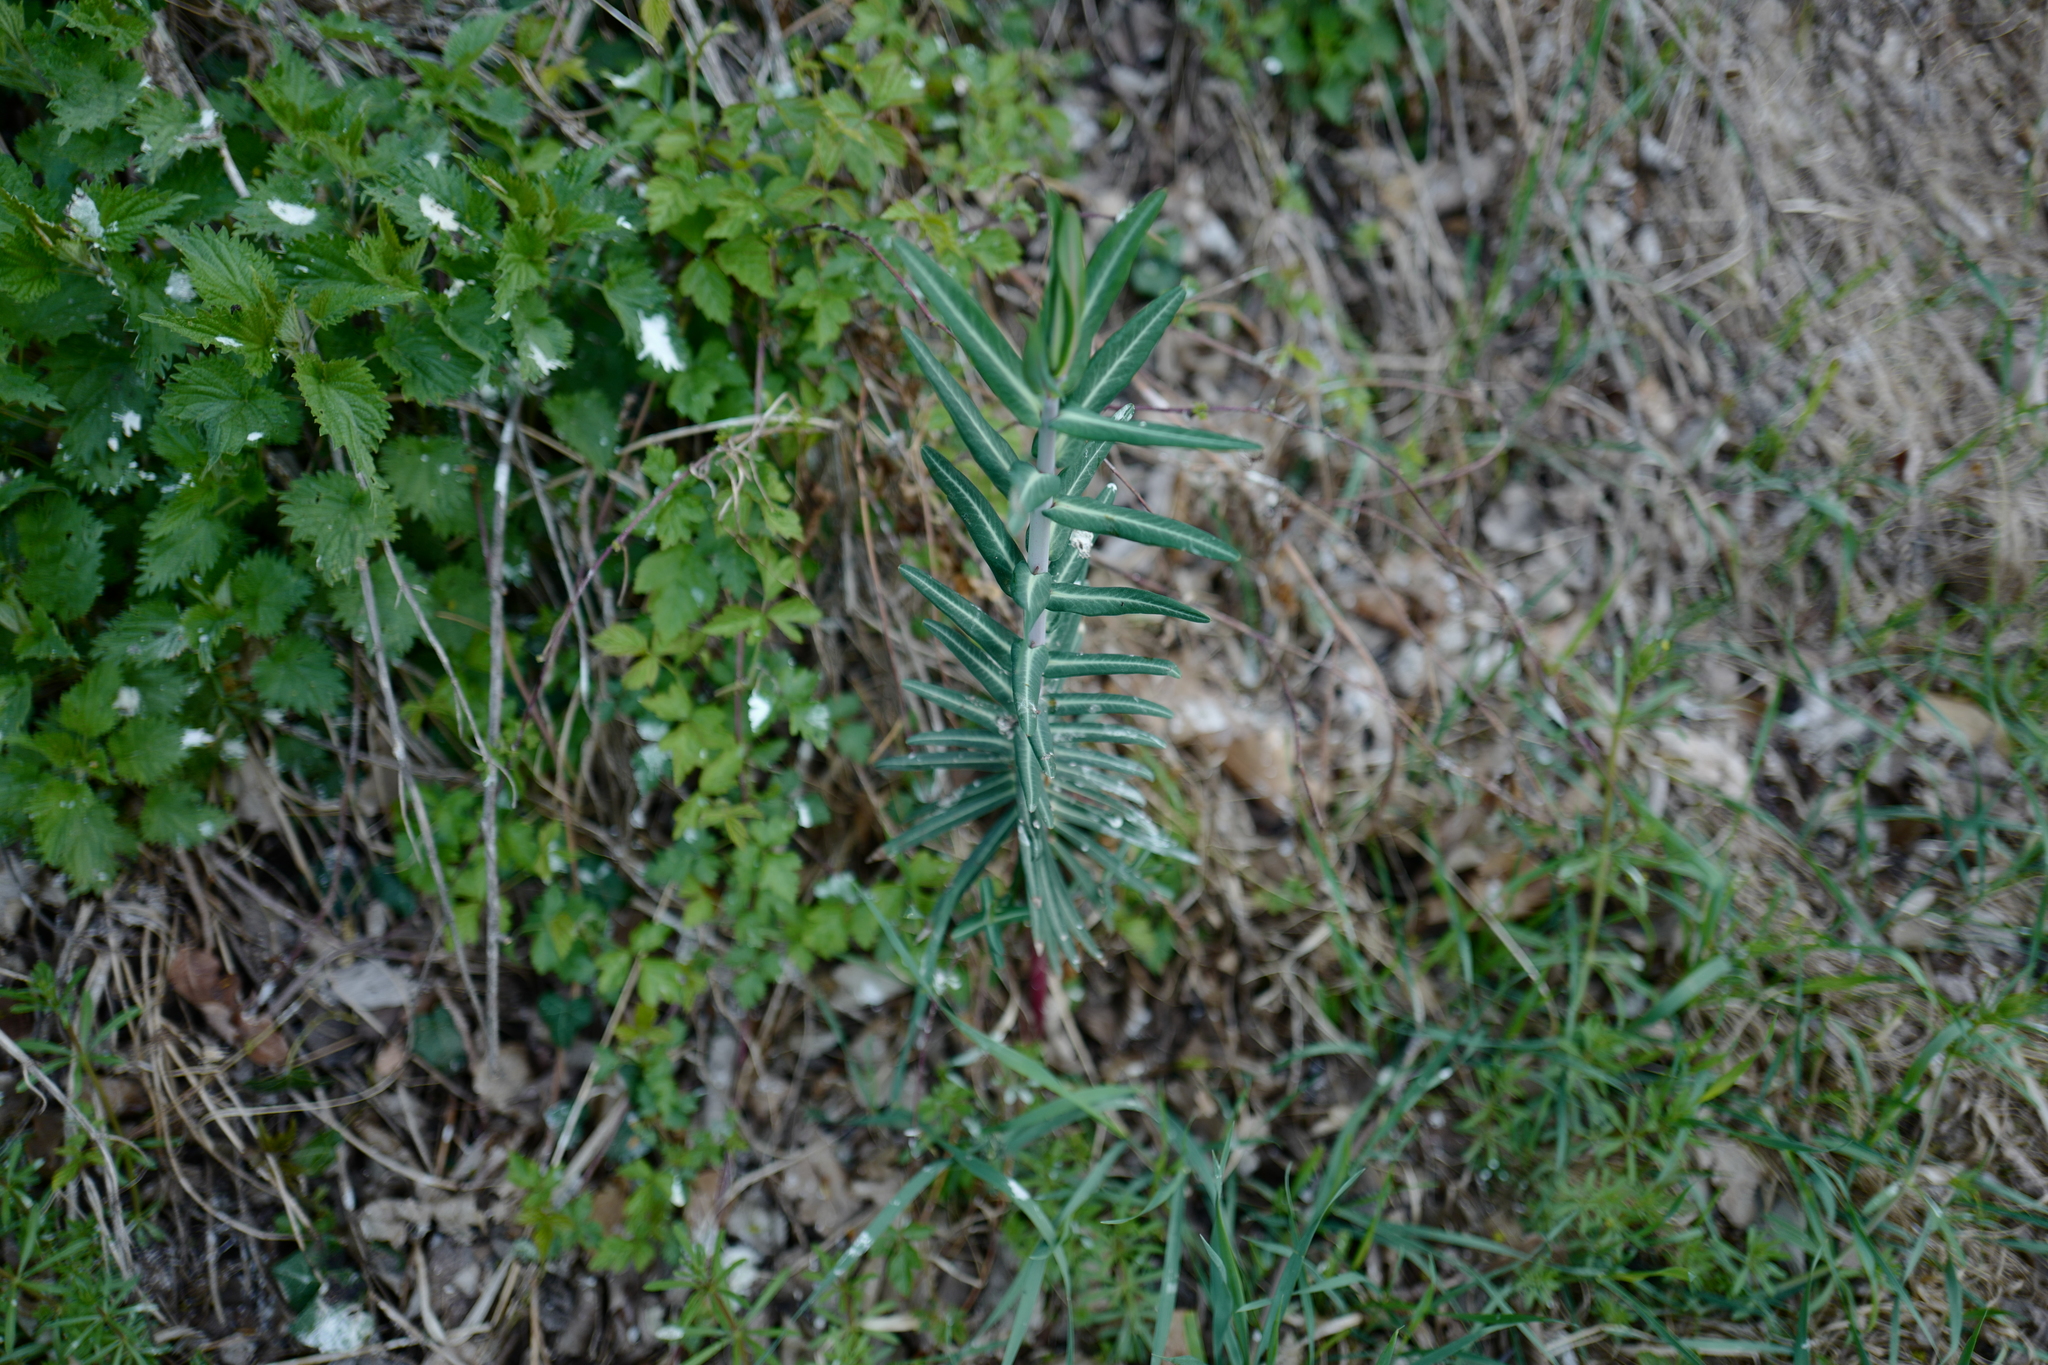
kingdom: Plantae
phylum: Tracheophyta
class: Magnoliopsida
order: Malpighiales
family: Euphorbiaceae
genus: Euphorbia
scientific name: Euphorbia lathyris
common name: Caper spurge
